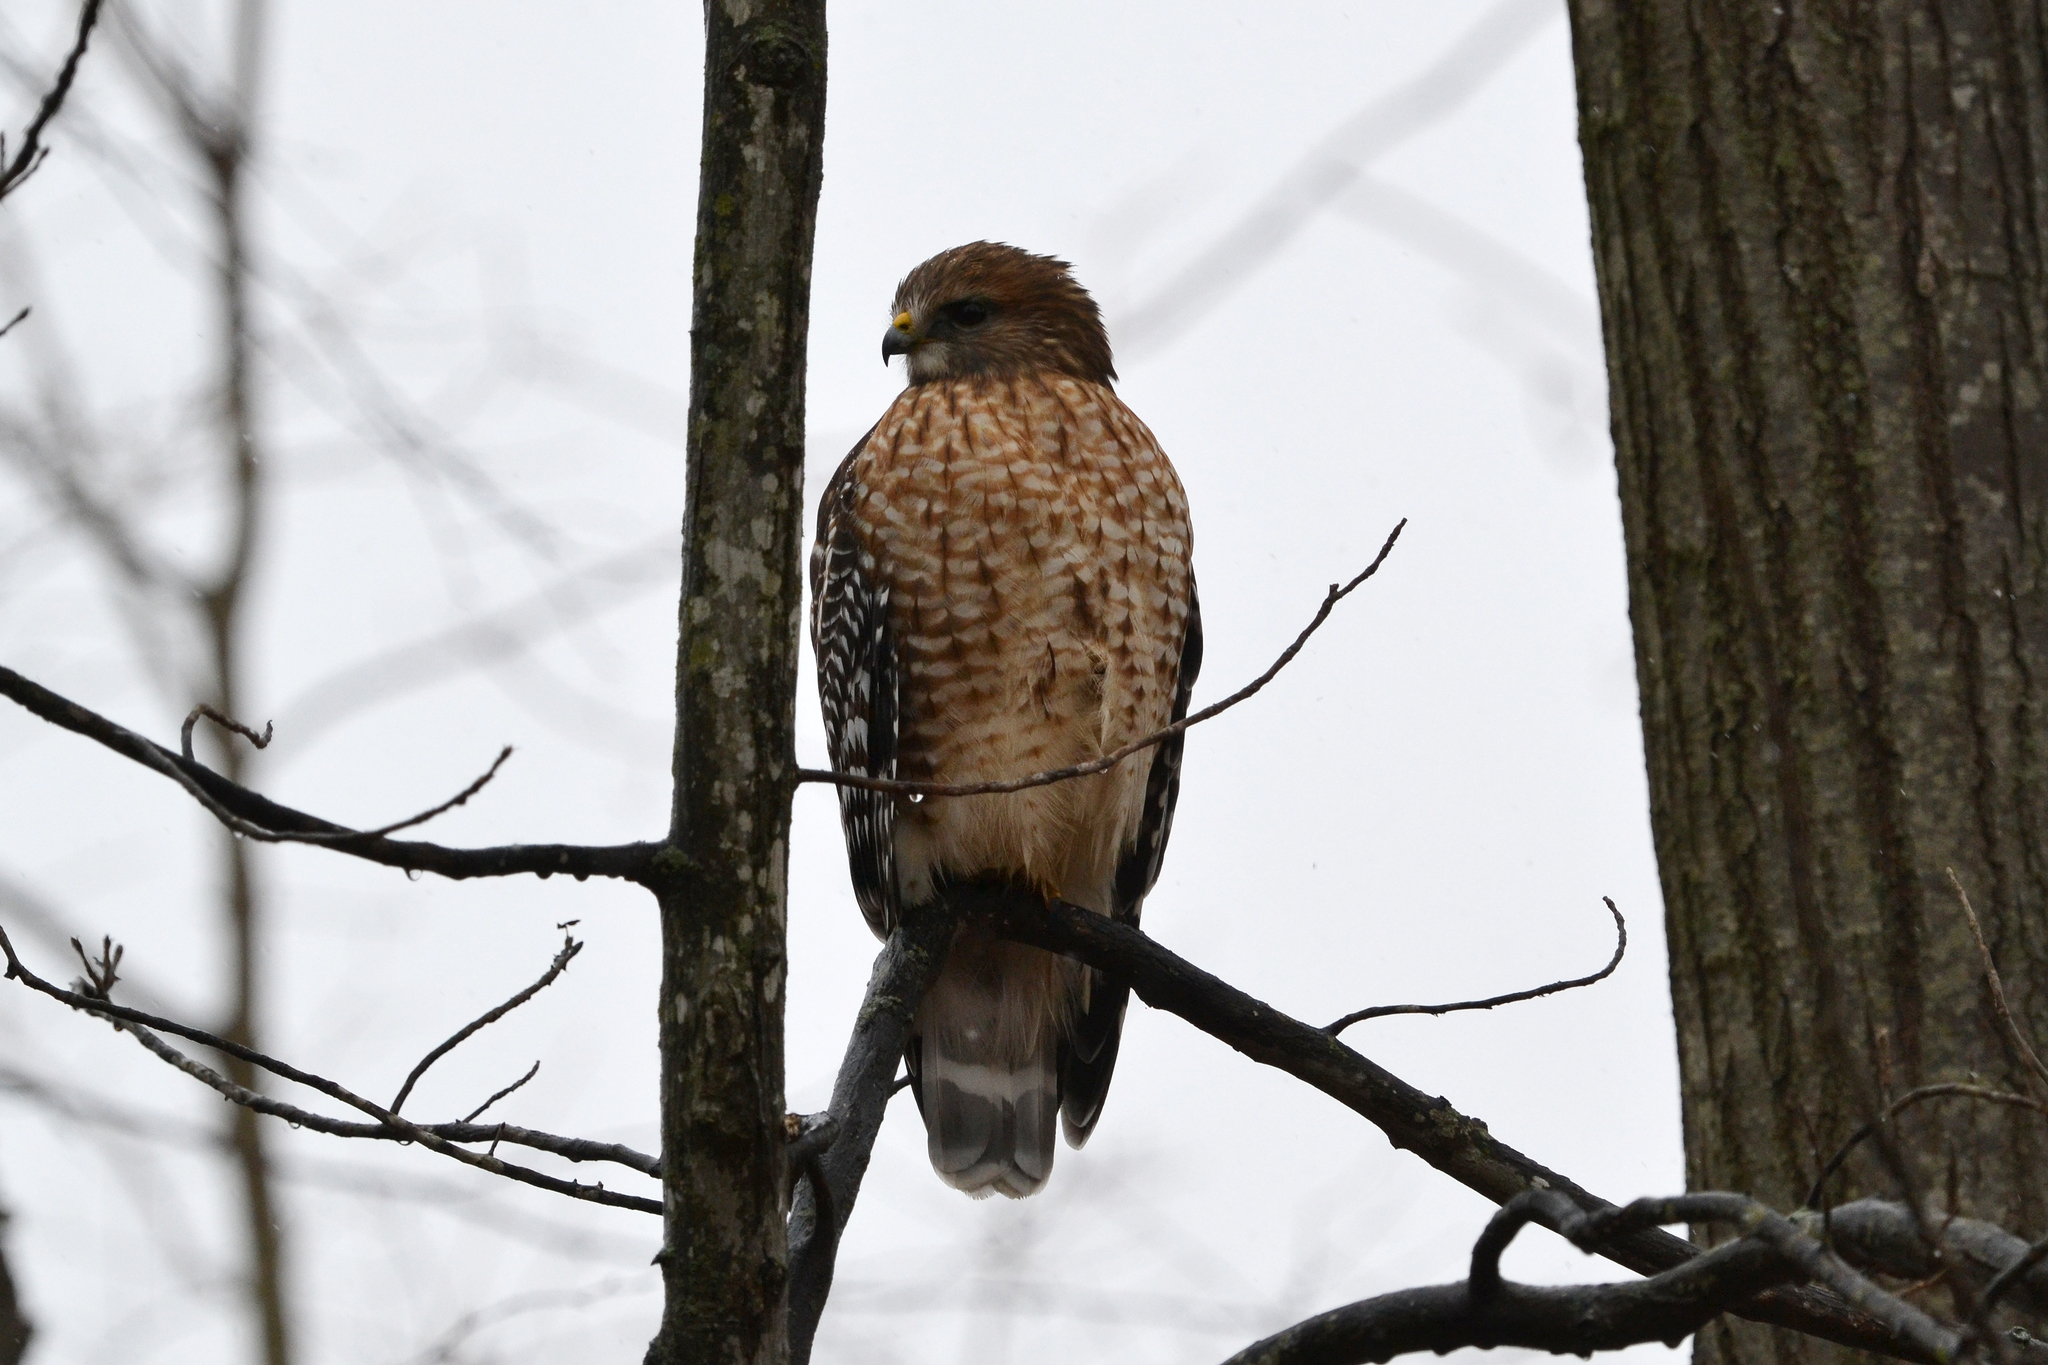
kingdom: Animalia
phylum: Chordata
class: Aves
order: Accipitriformes
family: Accipitridae
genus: Buteo
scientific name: Buteo lineatus
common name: Red-shouldered hawk
